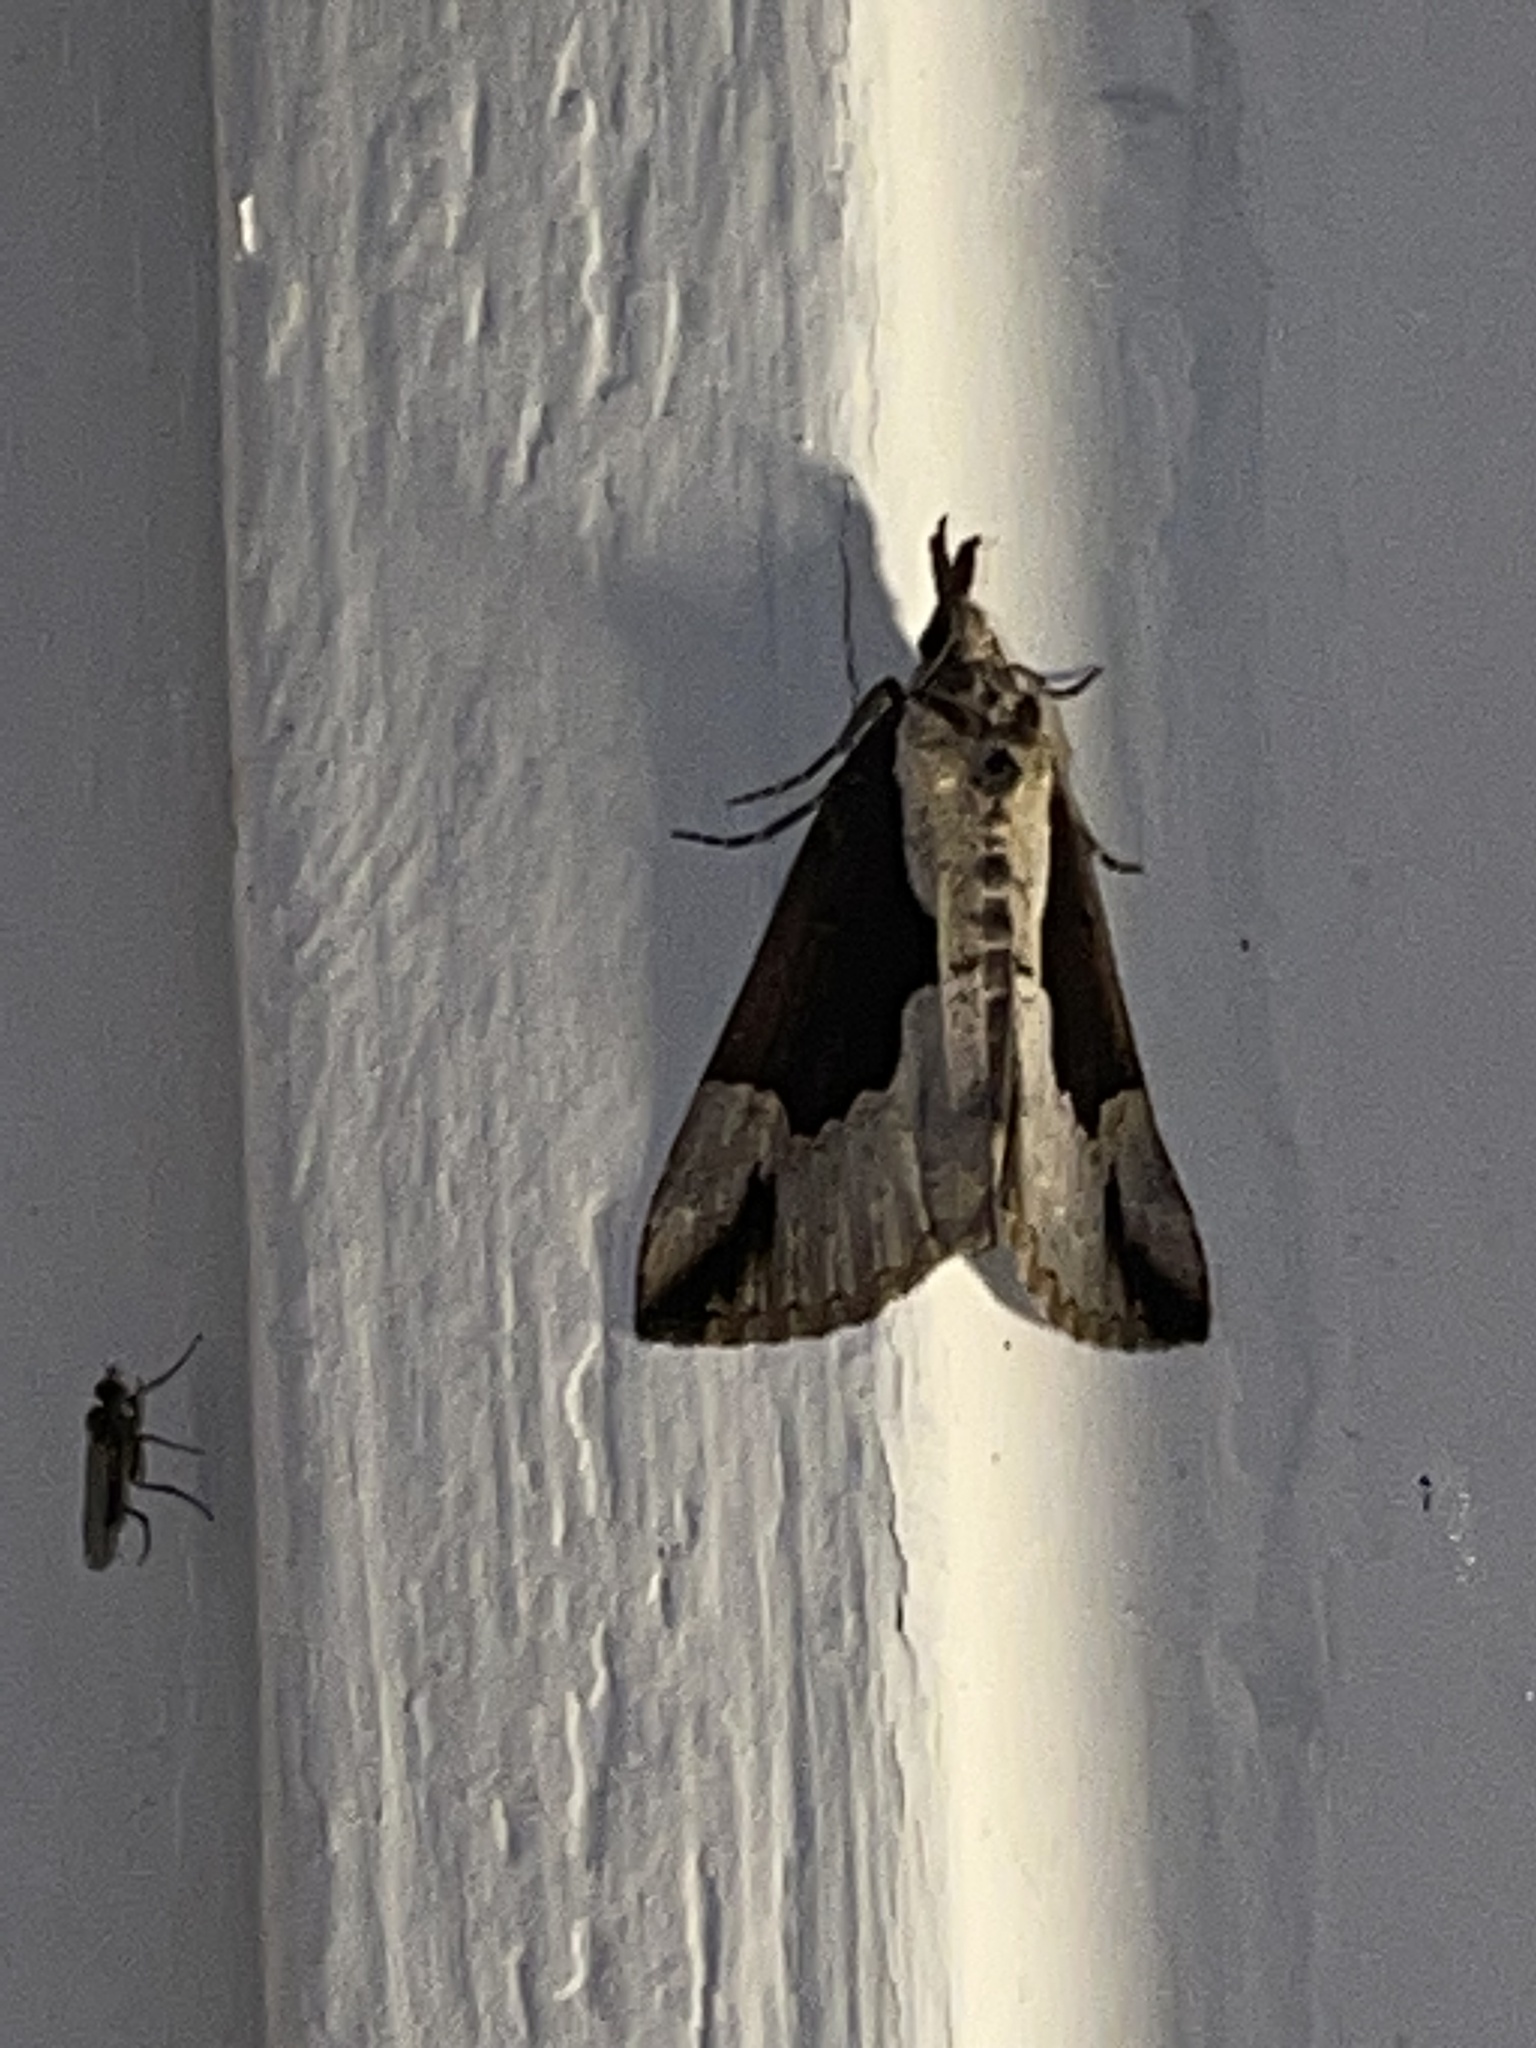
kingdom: Animalia
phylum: Arthropoda
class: Insecta
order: Lepidoptera
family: Erebidae
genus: Hypena
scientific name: Hypena baltimoralis
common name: Baltimore snout
